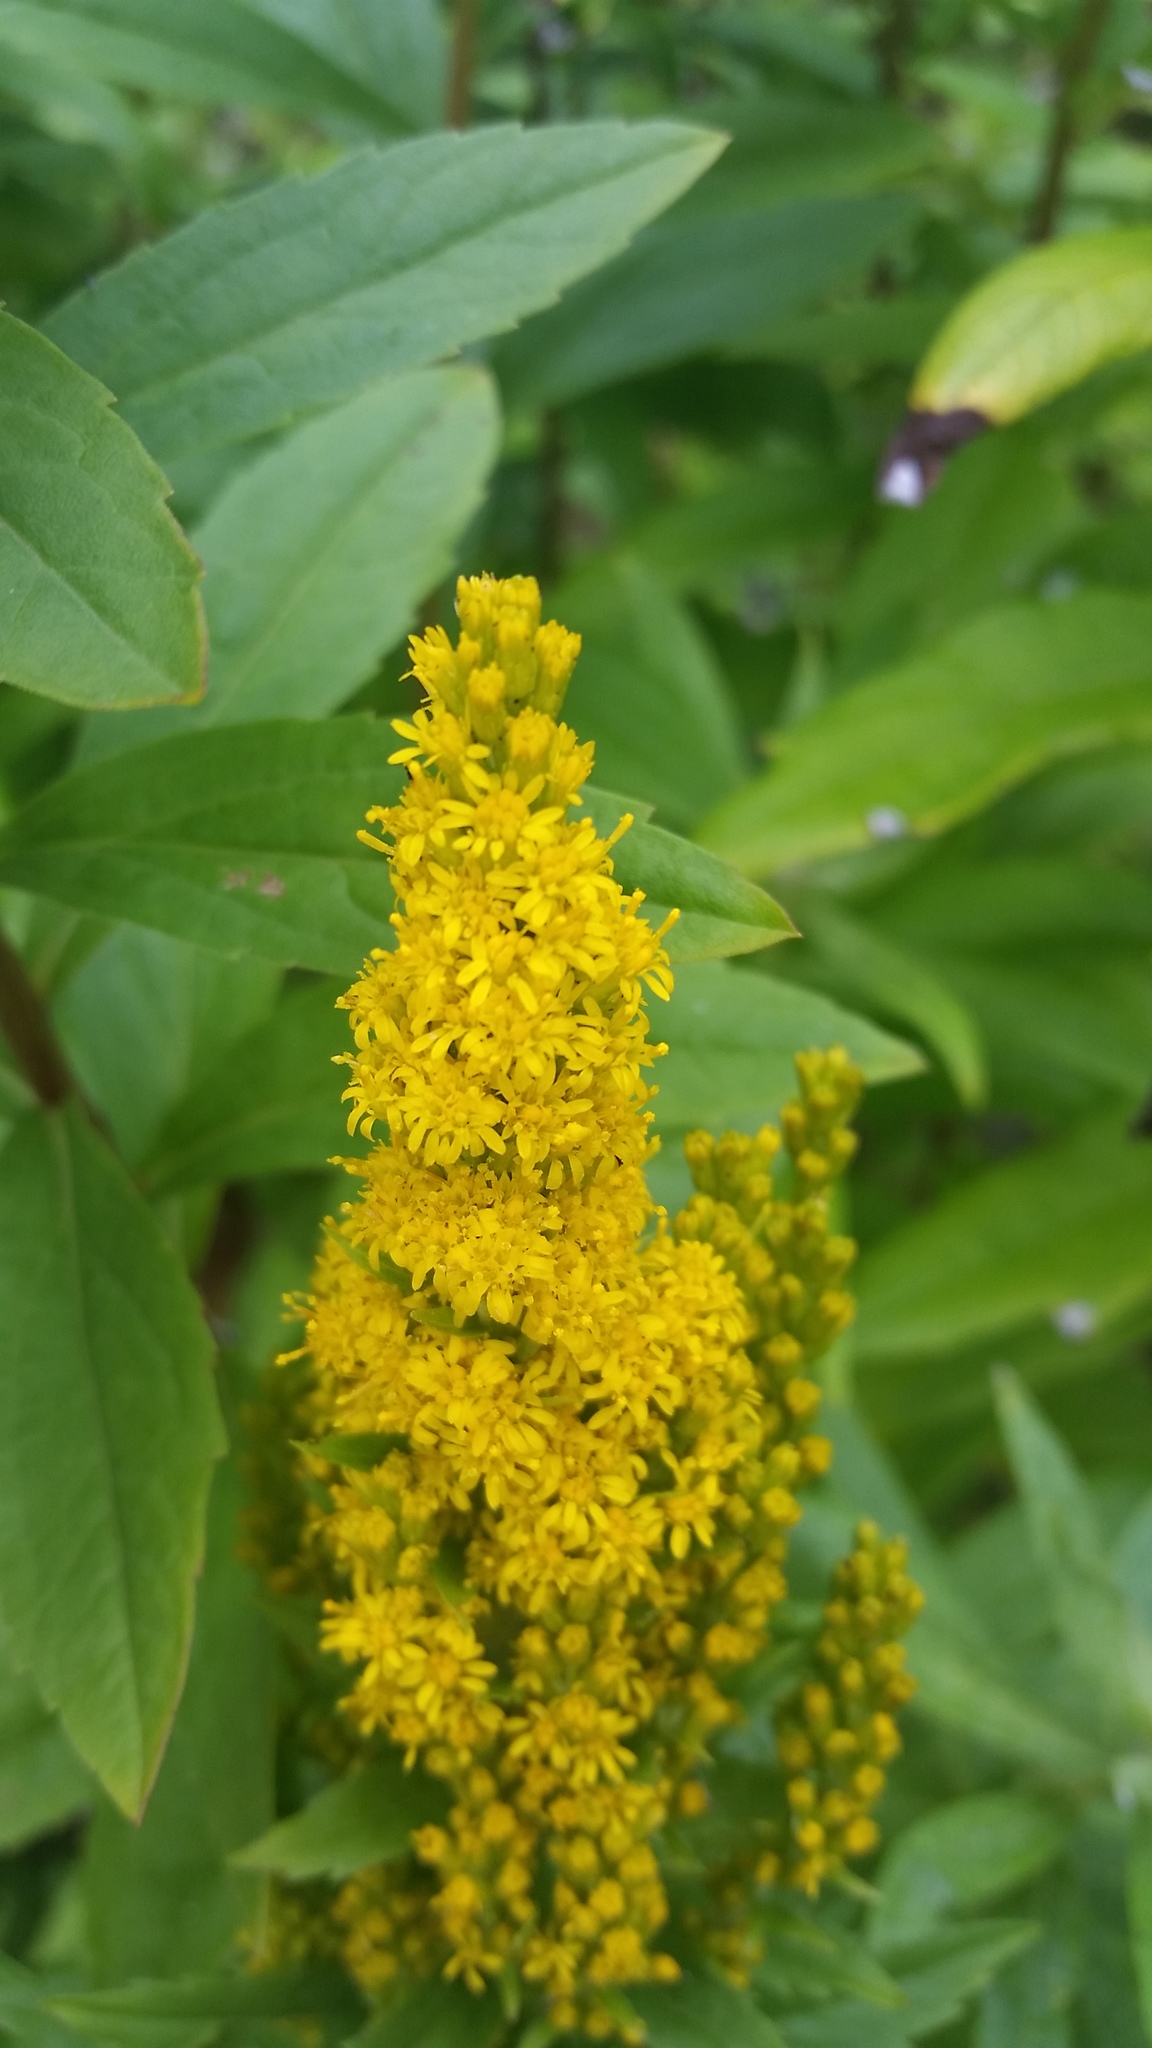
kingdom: Plantae
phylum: Tracheophyta
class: Magnoliopsida
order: Asterales
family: Asteraceae
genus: Solidago
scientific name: Solidago lepida
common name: Western canada goldenrod
